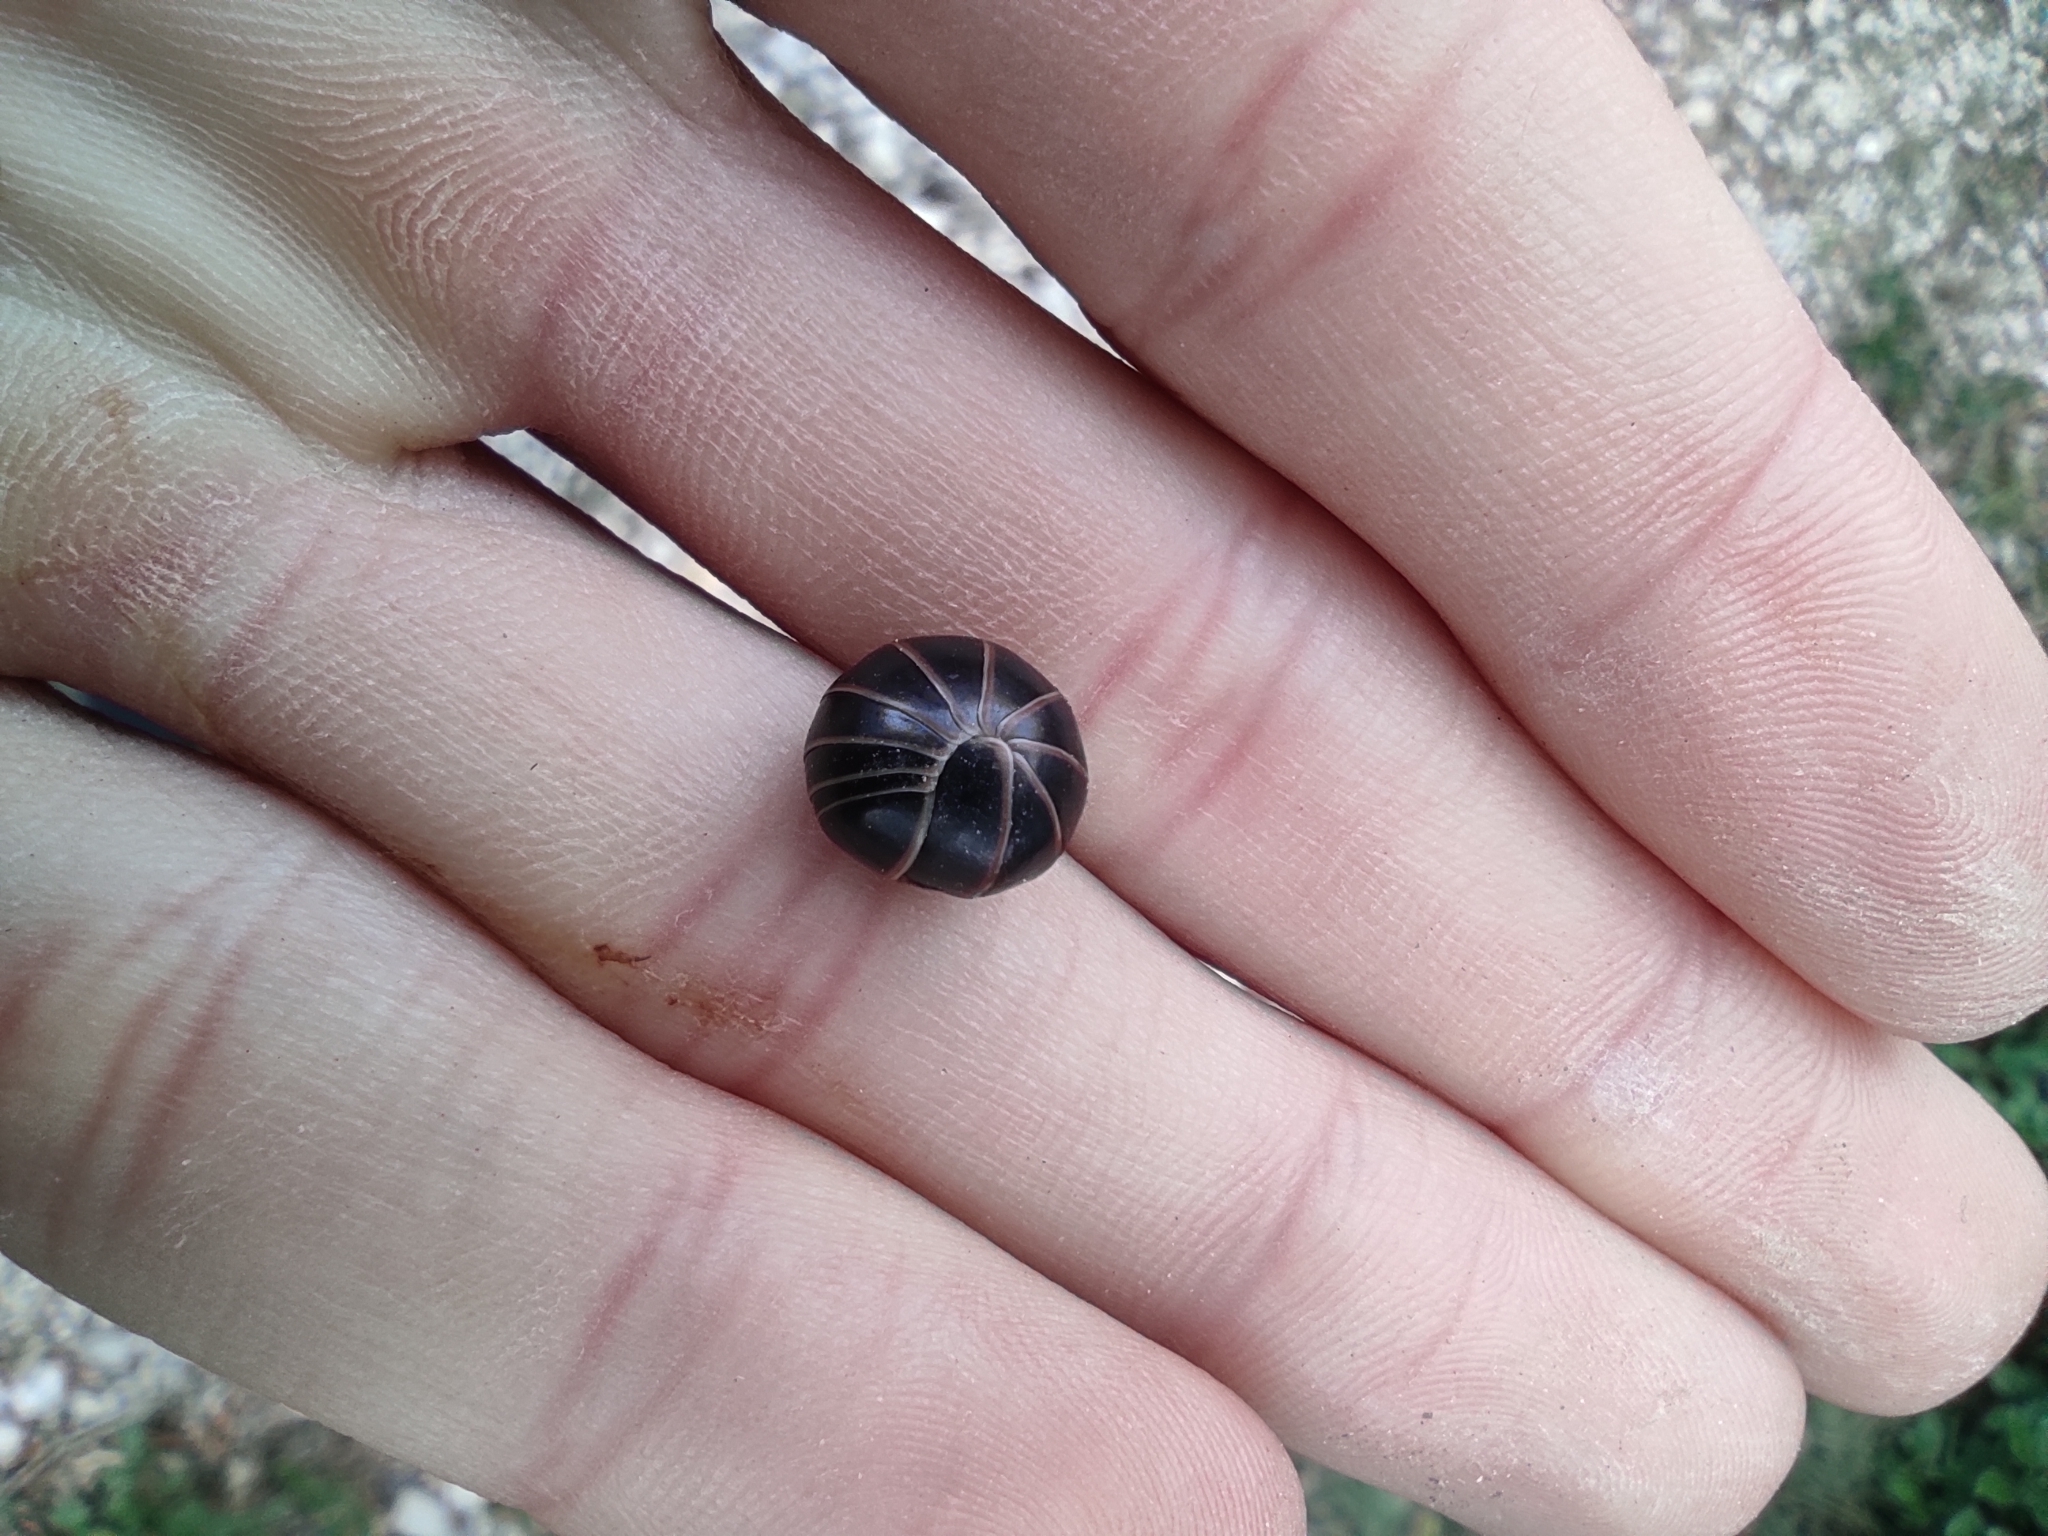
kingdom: Animalia
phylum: Arthropoda
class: Diplopoda
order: Glomerida
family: Glomeridae
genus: Glomeris
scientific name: Glomeris marginata
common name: Bordered pill millipede
